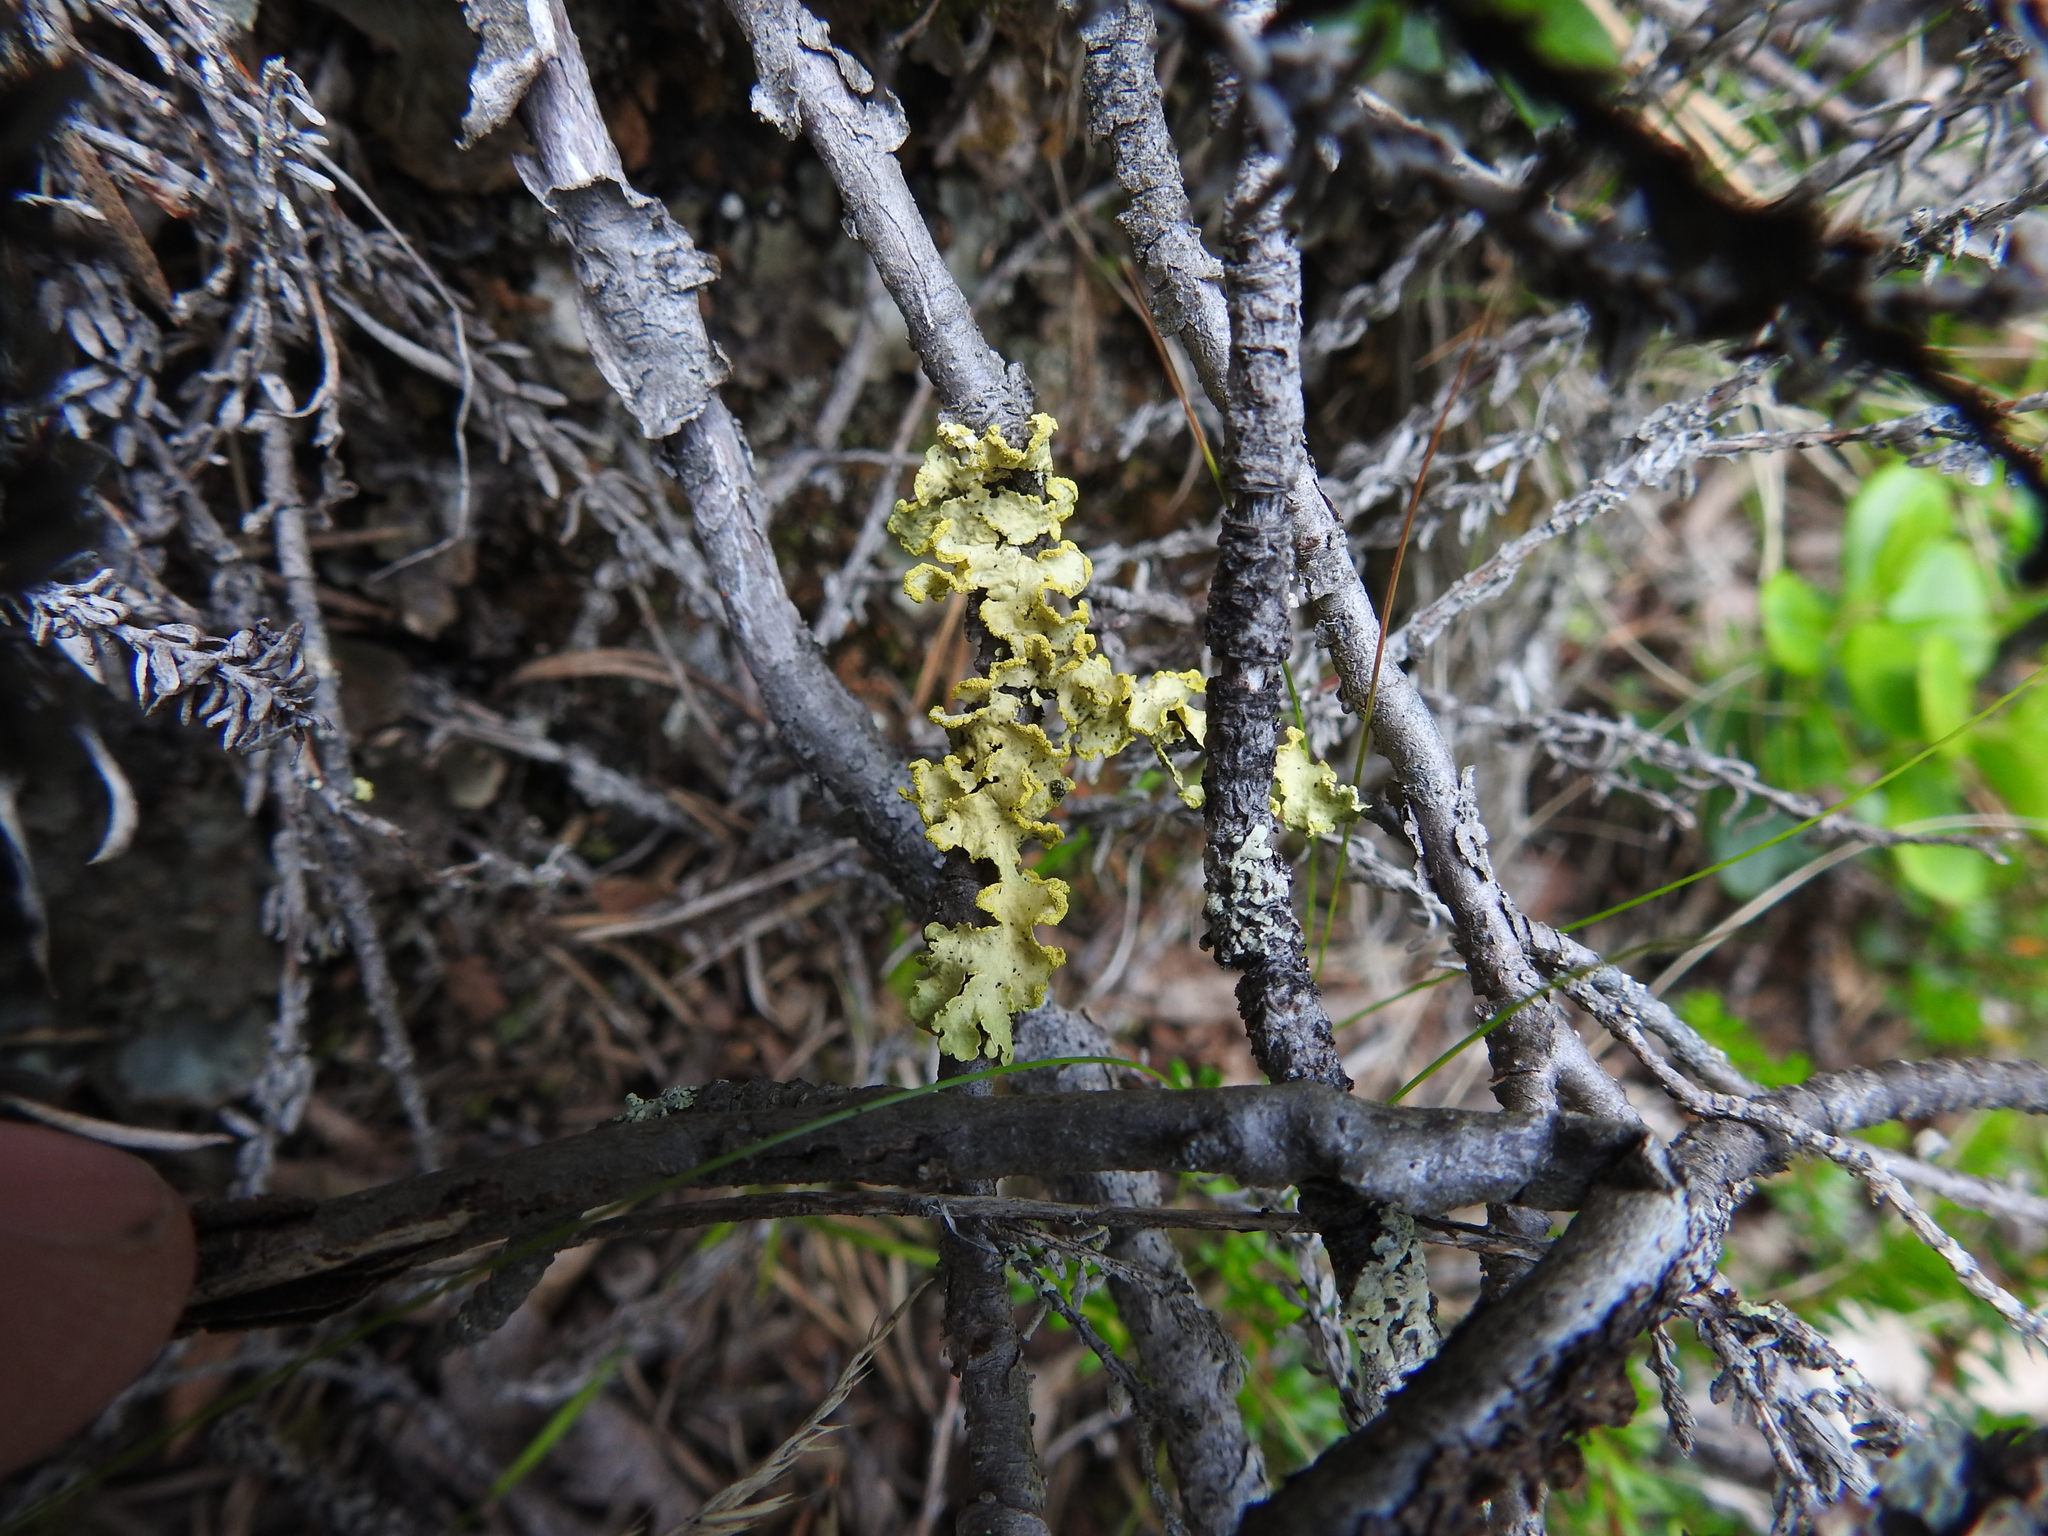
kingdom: Fungi
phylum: Ascomycota
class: Lecanoromycetes
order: Lecanorales
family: Parmeliaceae
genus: Vulpicida
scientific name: Vulpicida pinastri
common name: Powdered sunshine lichen
